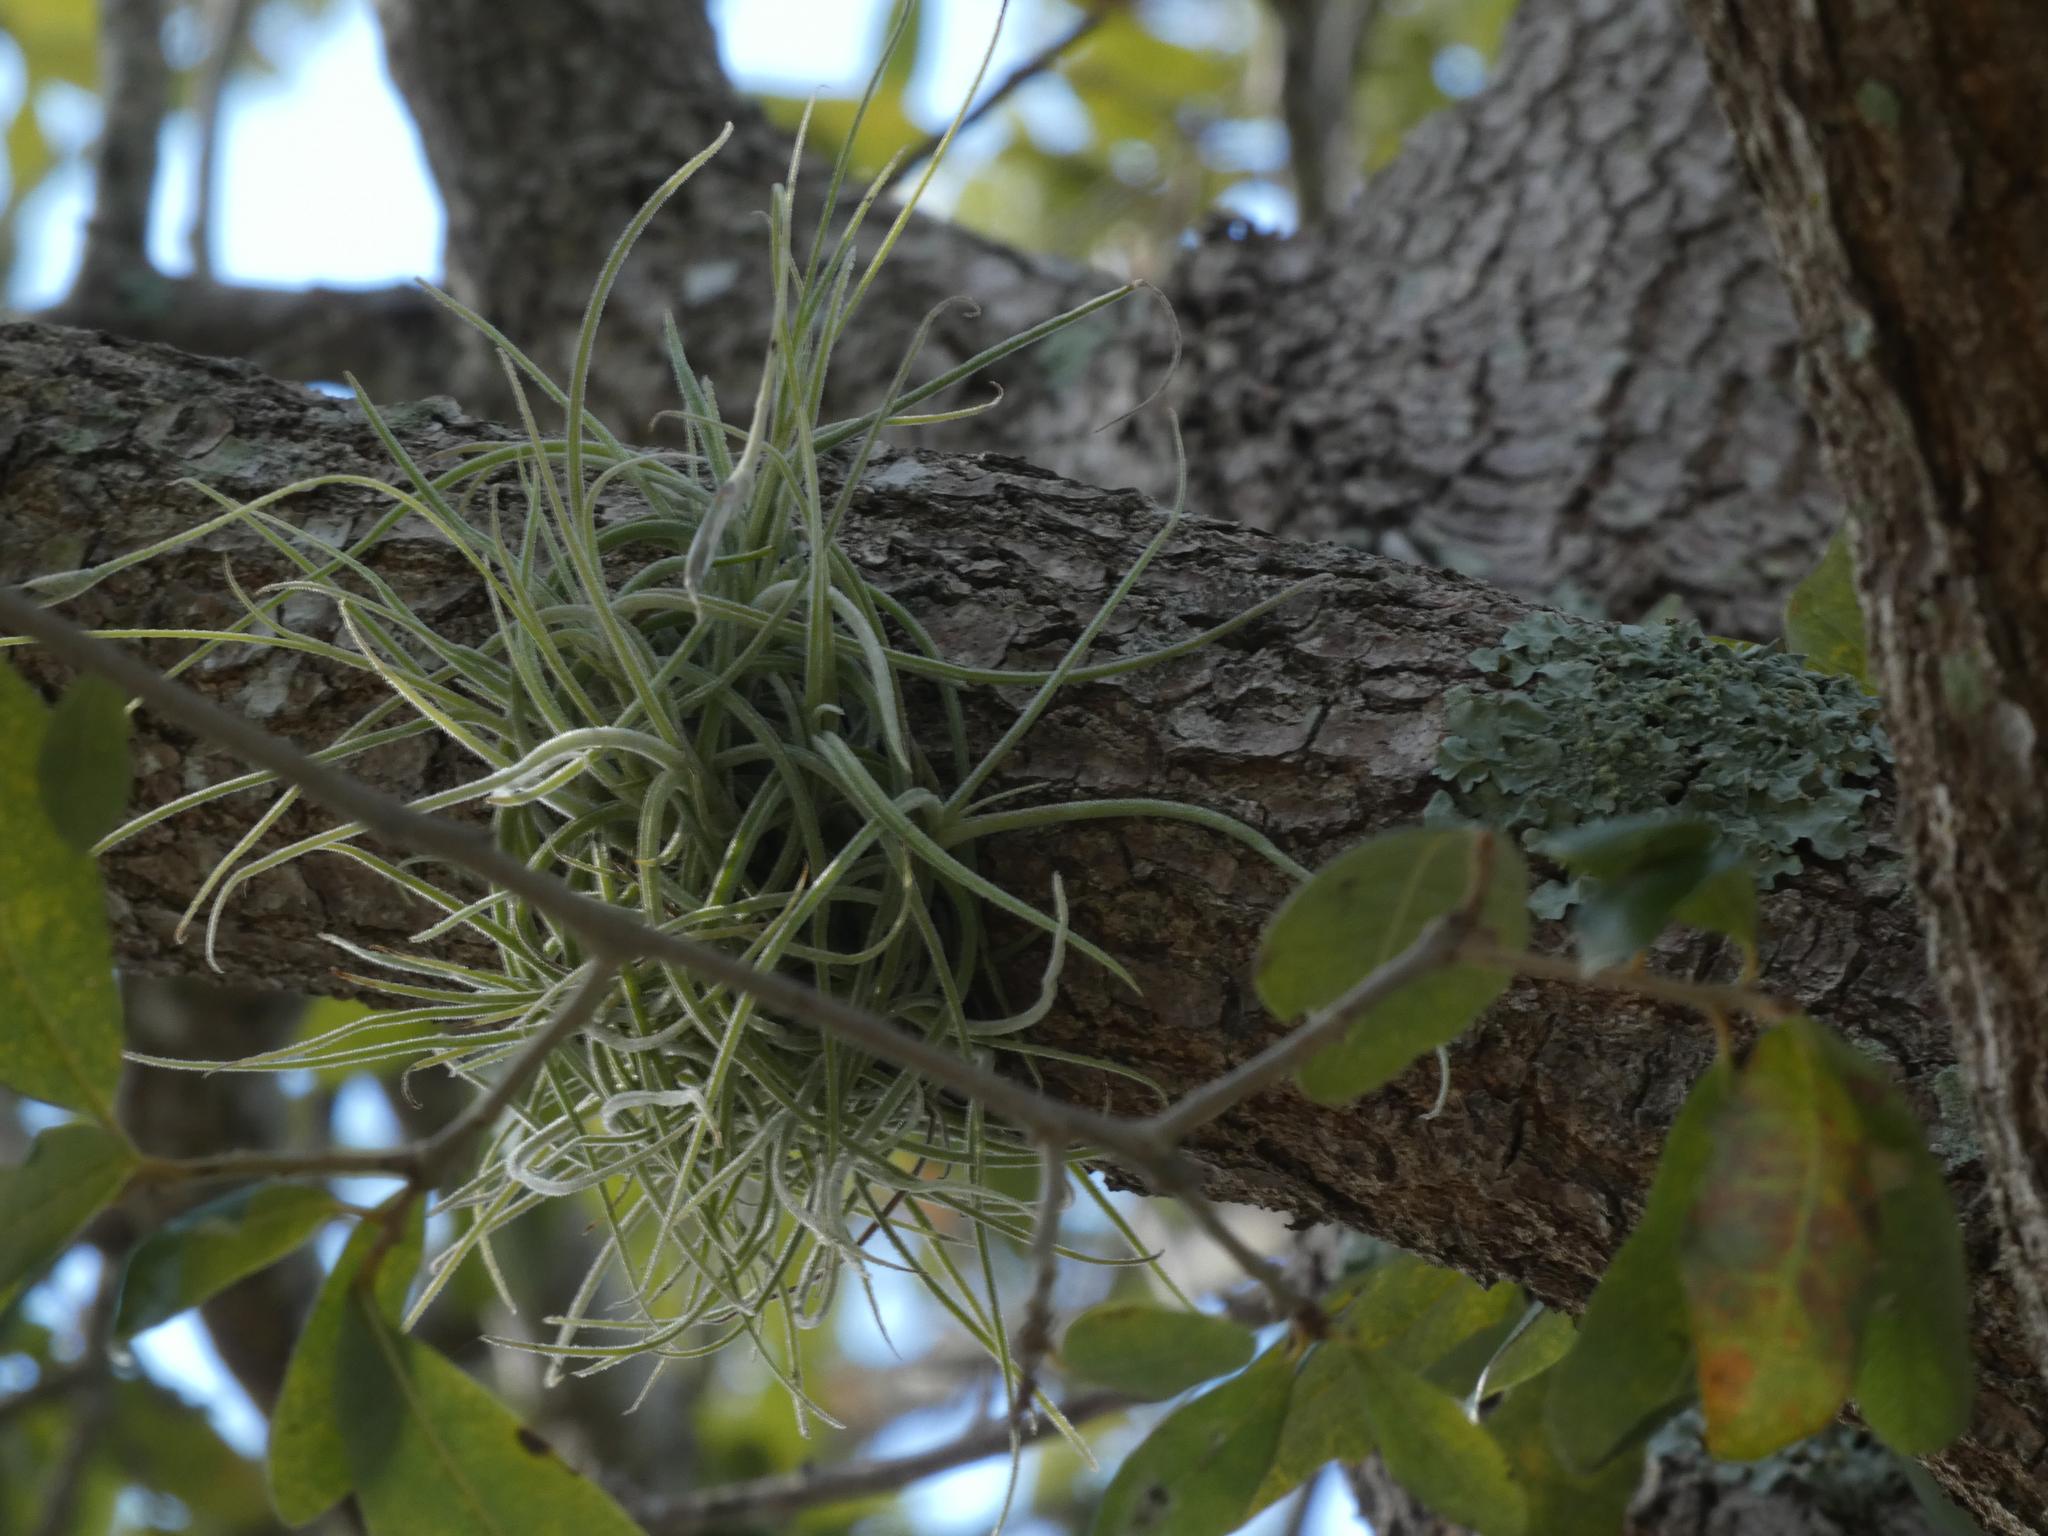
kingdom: Plantae
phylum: Tracheophyta
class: Liliopsida
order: Poales
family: Bromeliaceae
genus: Tillandsia
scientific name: Tillandsia recurvata
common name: Small ballmoss
